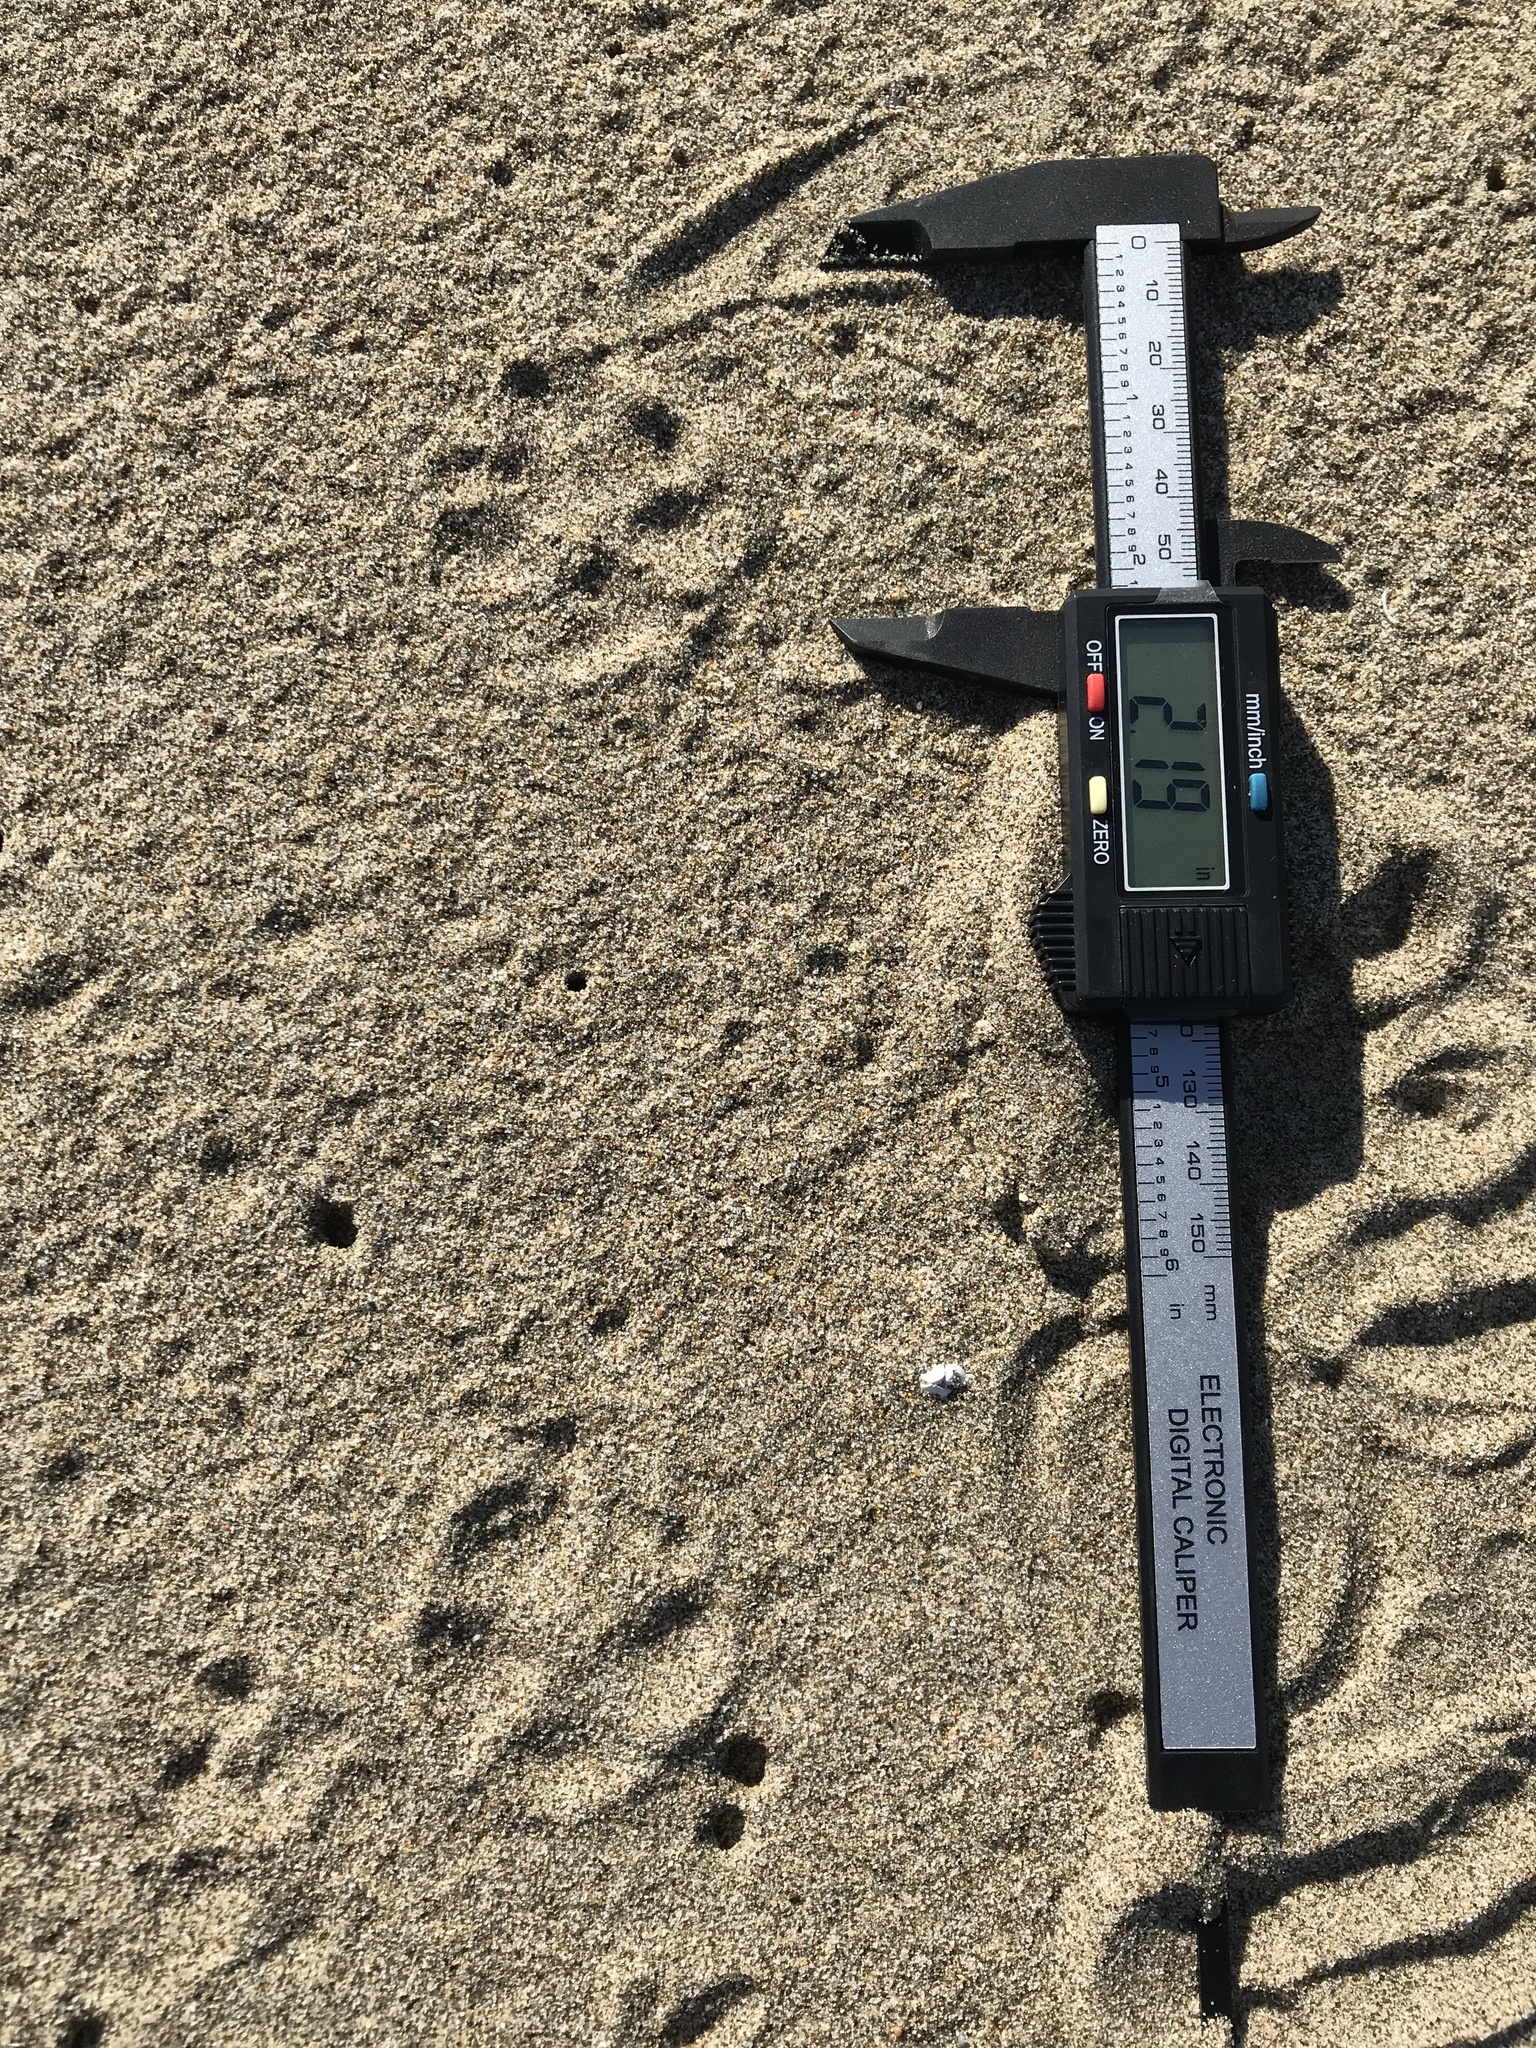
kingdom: Animalia
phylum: Chordata
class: Mammalia
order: Carnivora
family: Canidae
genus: Urocyon
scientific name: Urocyon cinereoargenteus
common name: Gray fox
